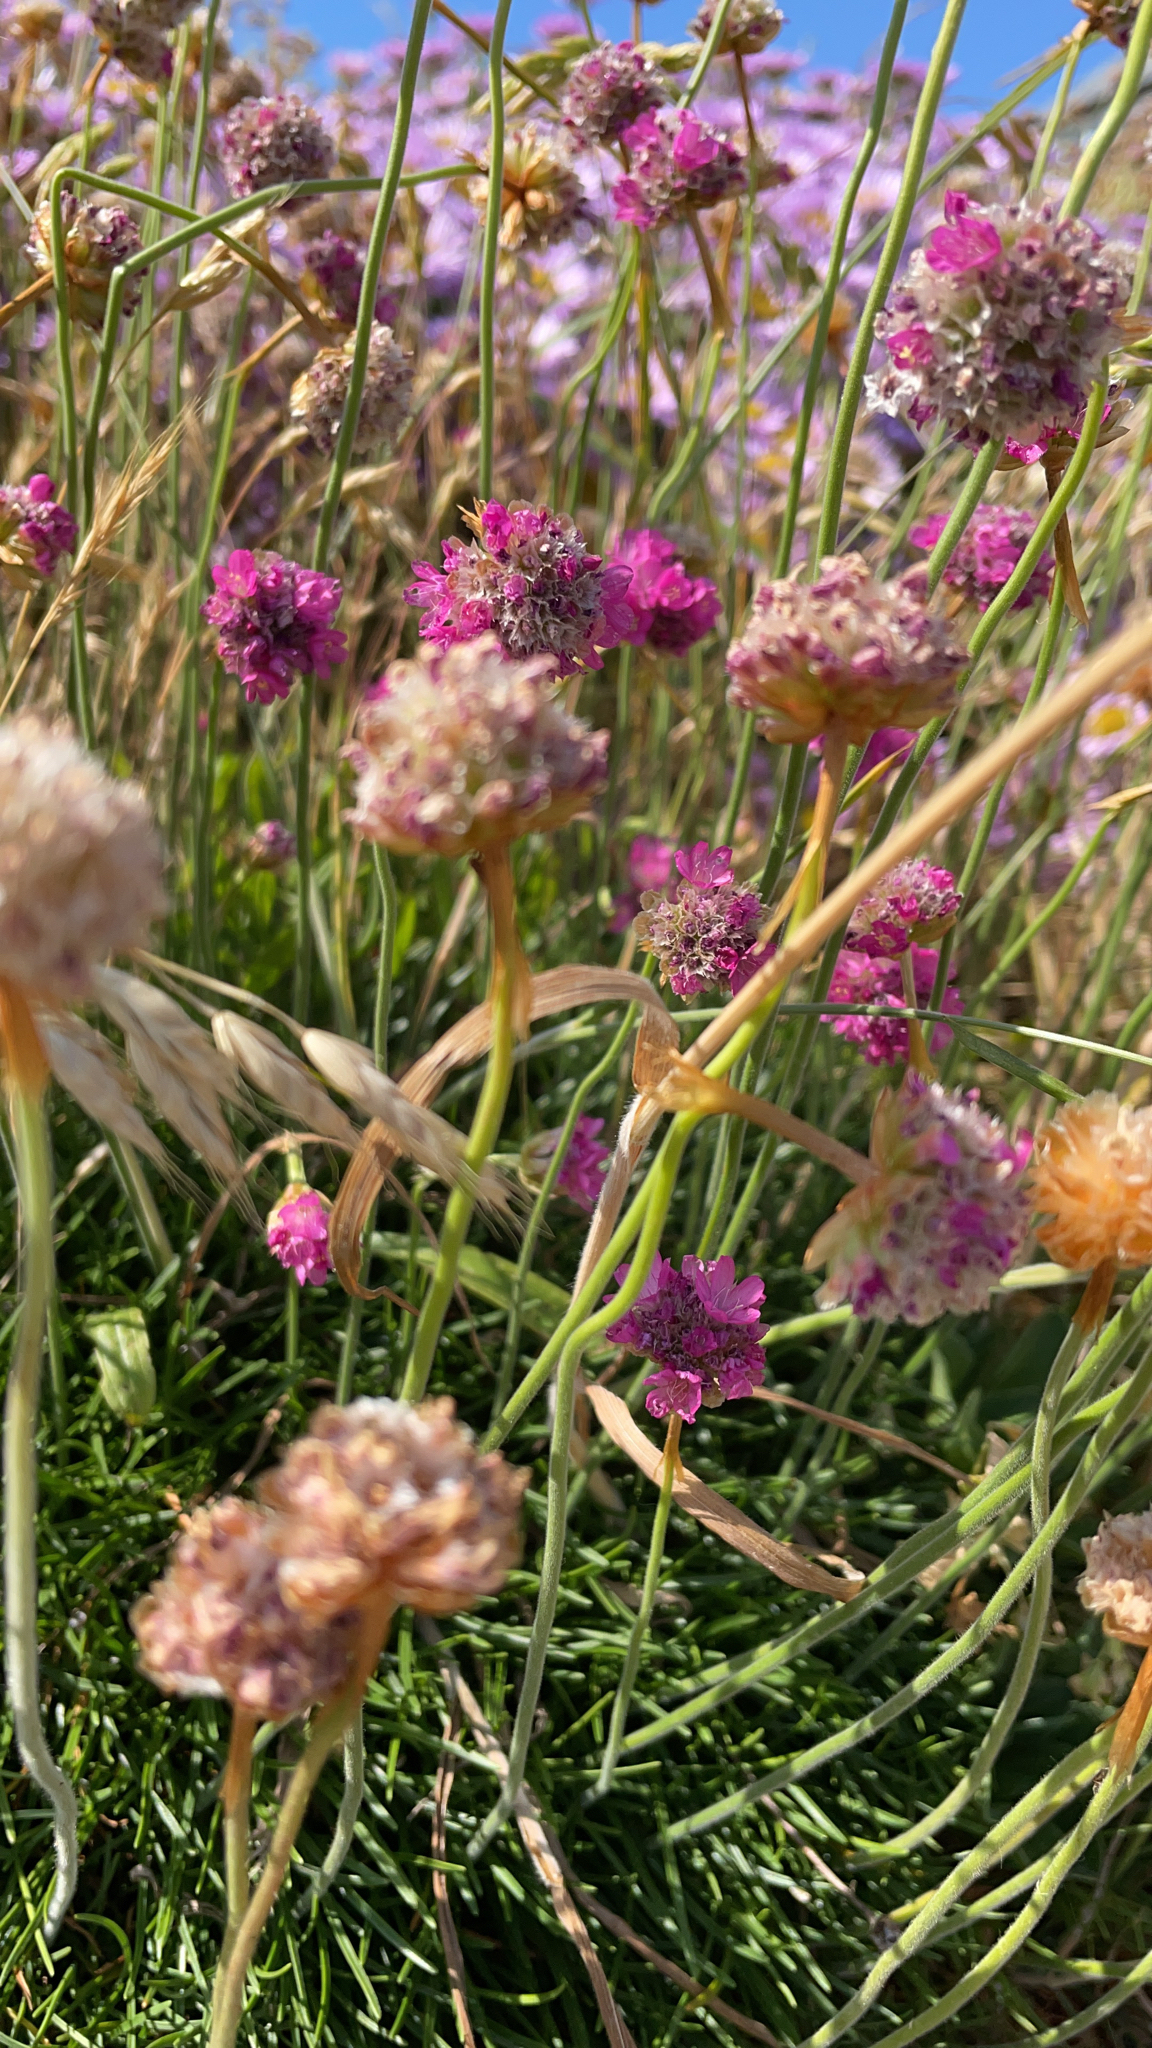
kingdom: Plantae
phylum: Tracheophyta
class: Magnoliopsida
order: Caryophyllales
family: Plumbaginaceae
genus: Armeria
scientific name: Armeria maritima
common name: Thrift
